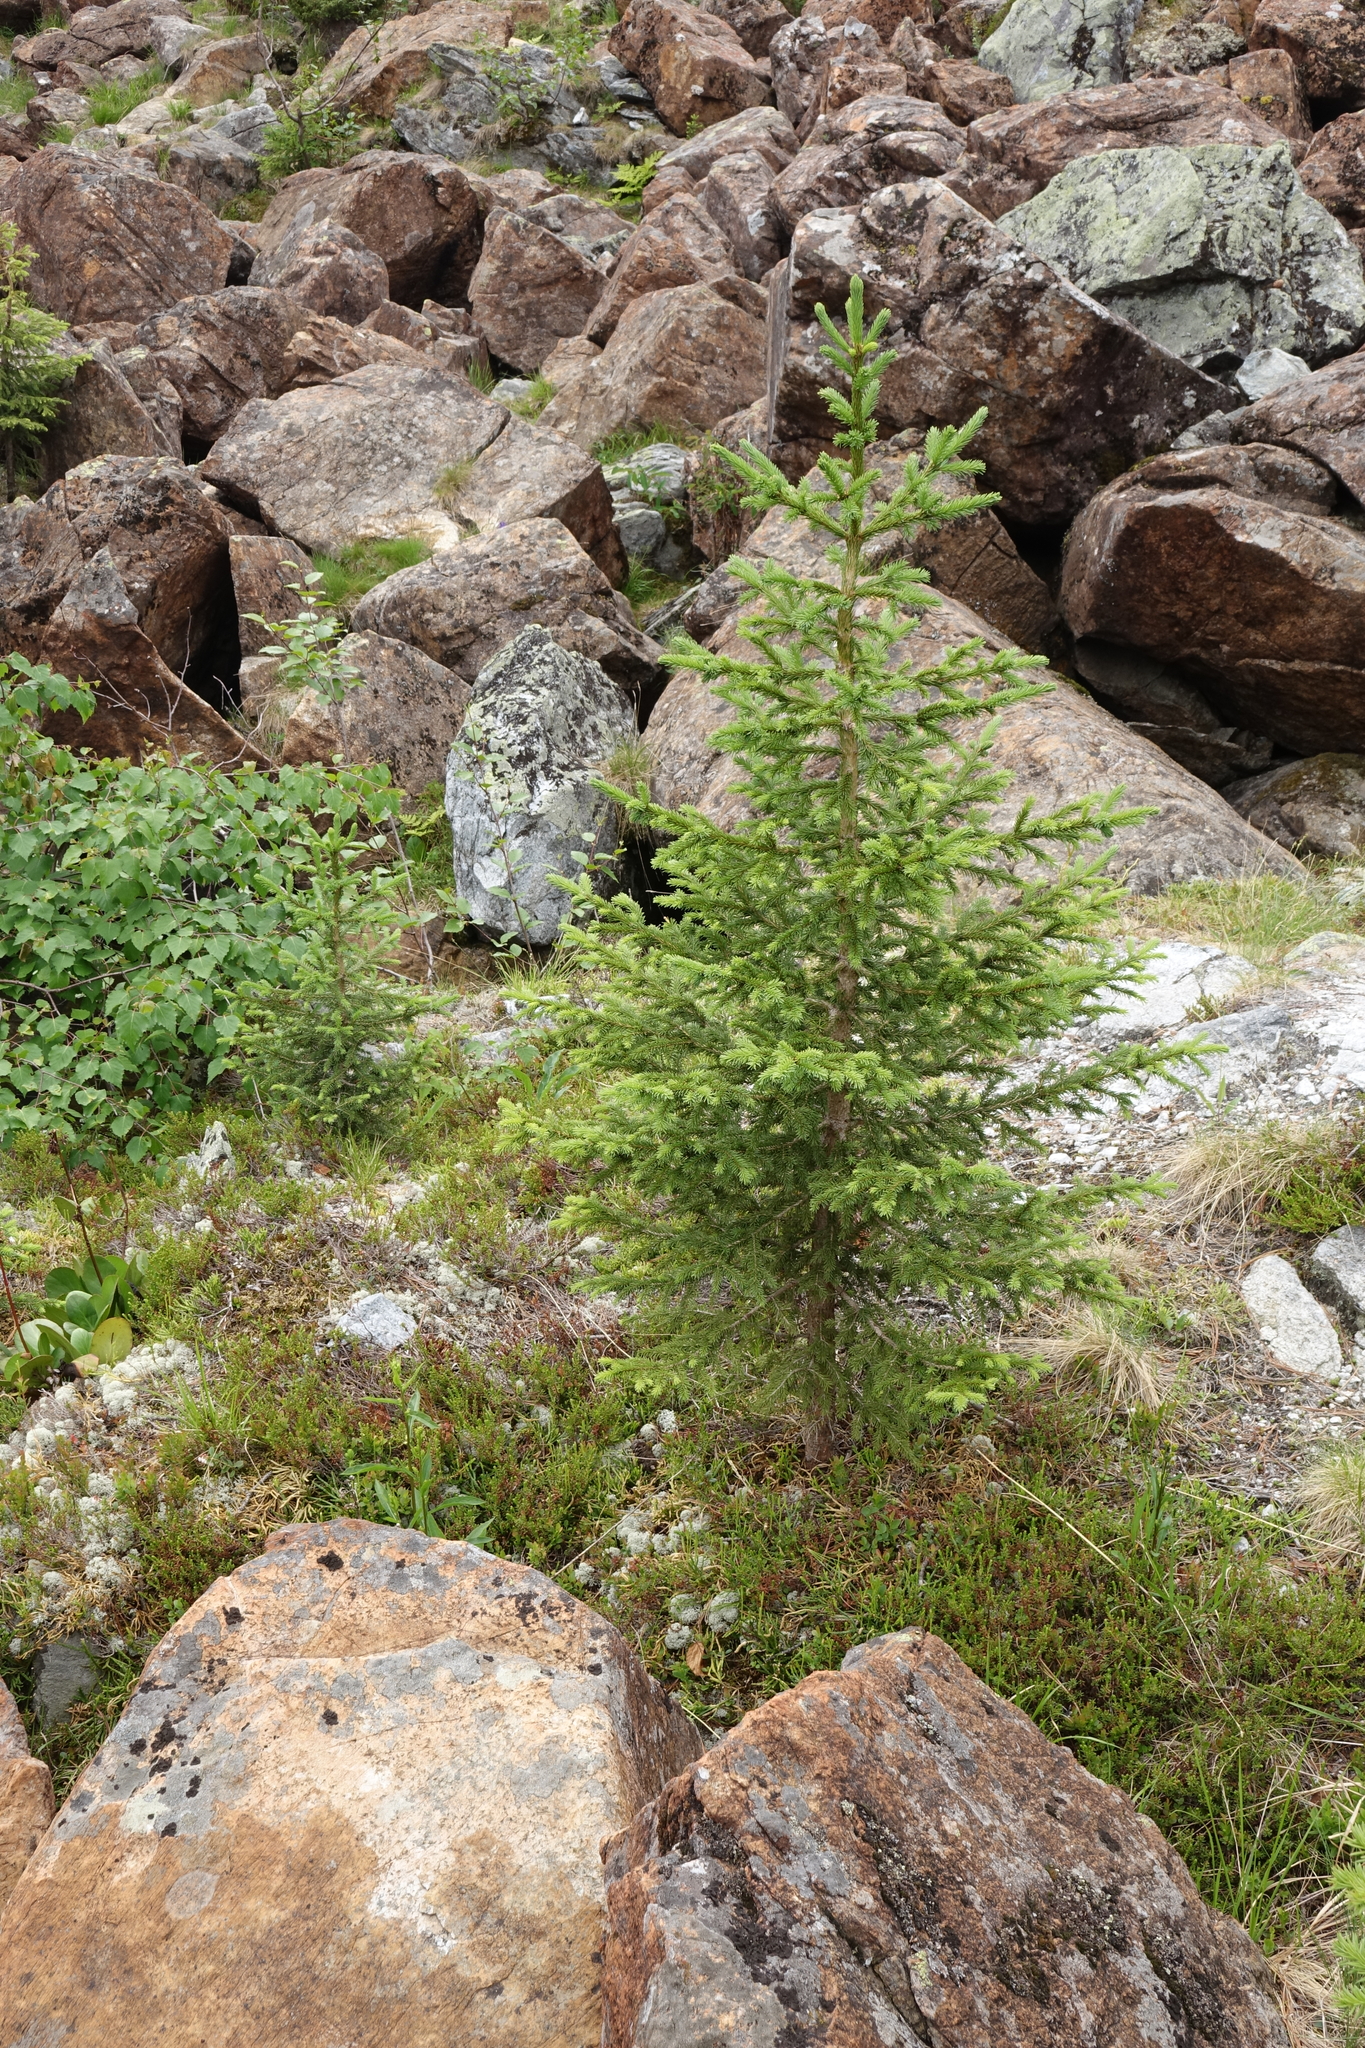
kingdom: Plantae
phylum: Tracheophyta
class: Pinopsida
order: Pinales
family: Pinaceae
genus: Picea
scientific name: Picea obovata
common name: Siberian spruce
